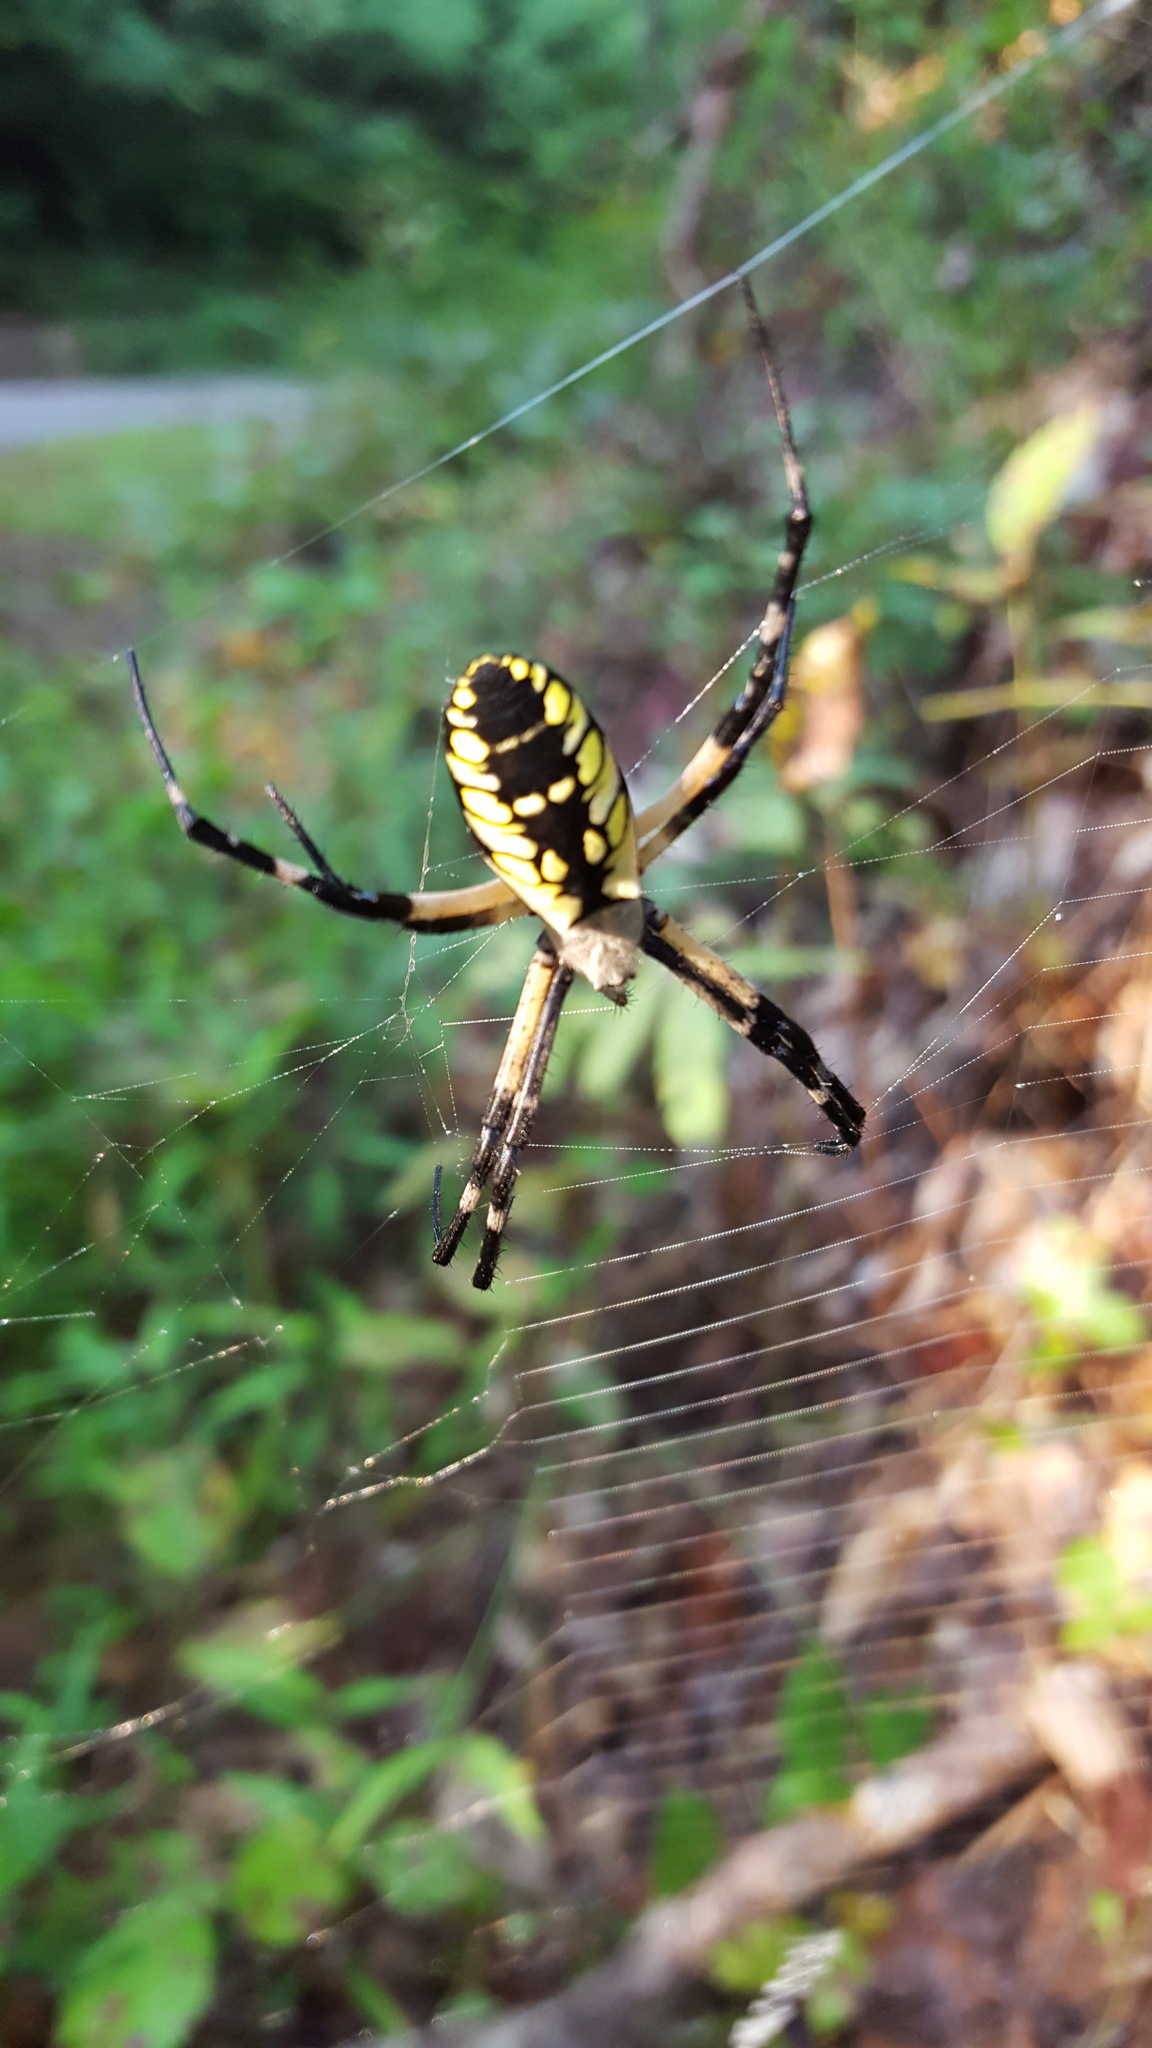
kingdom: Animalia
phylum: Arthropoda
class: Arachnida
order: Araneae
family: Araneidae
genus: Argiope
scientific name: Argiope aurantia
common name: Orb weavers
